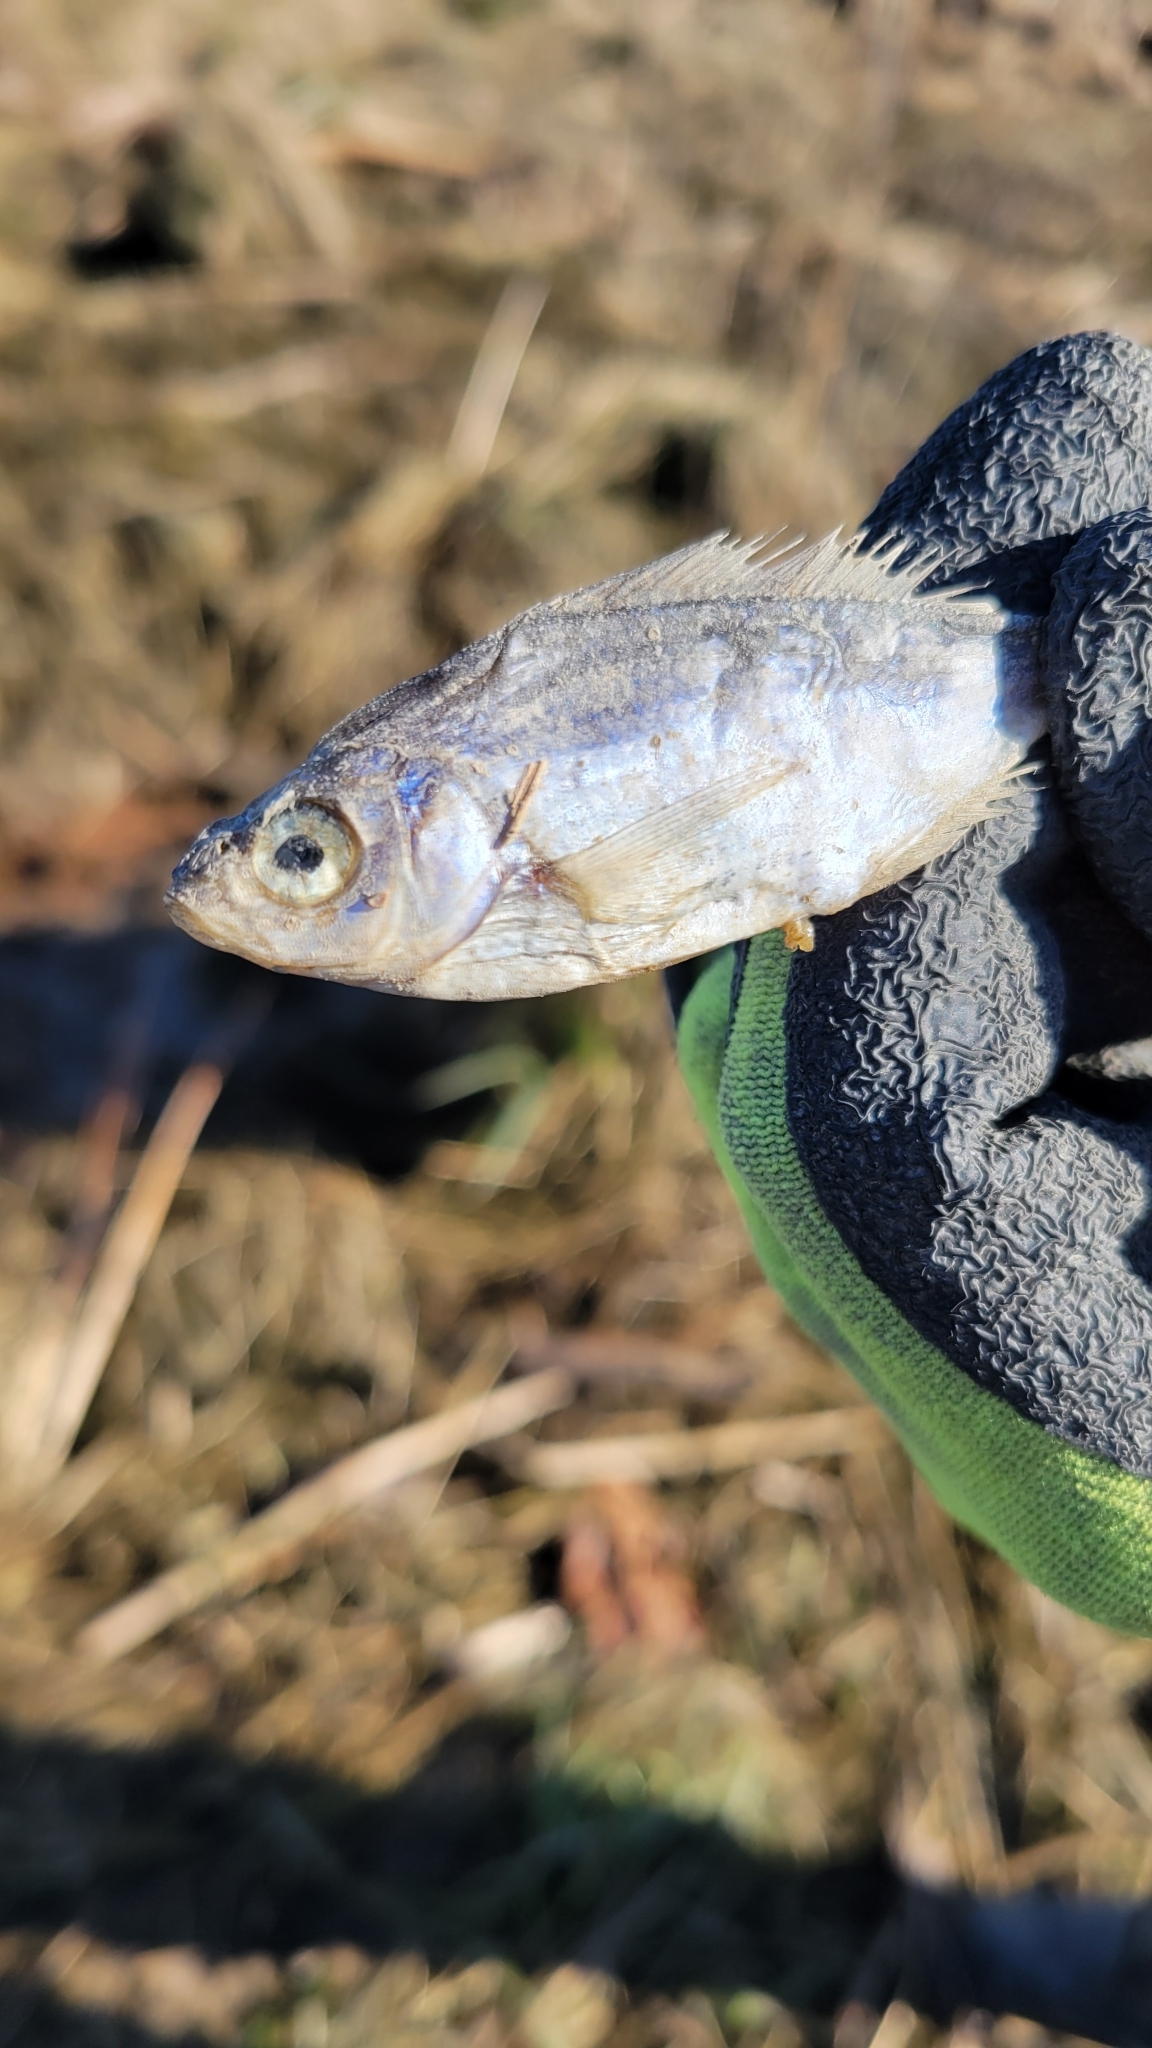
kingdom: Animalia
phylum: Chordata
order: Perciformes
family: Embiotocidae
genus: Cymatogaster
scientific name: Cymatogaster aggregata
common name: Shiner perch
